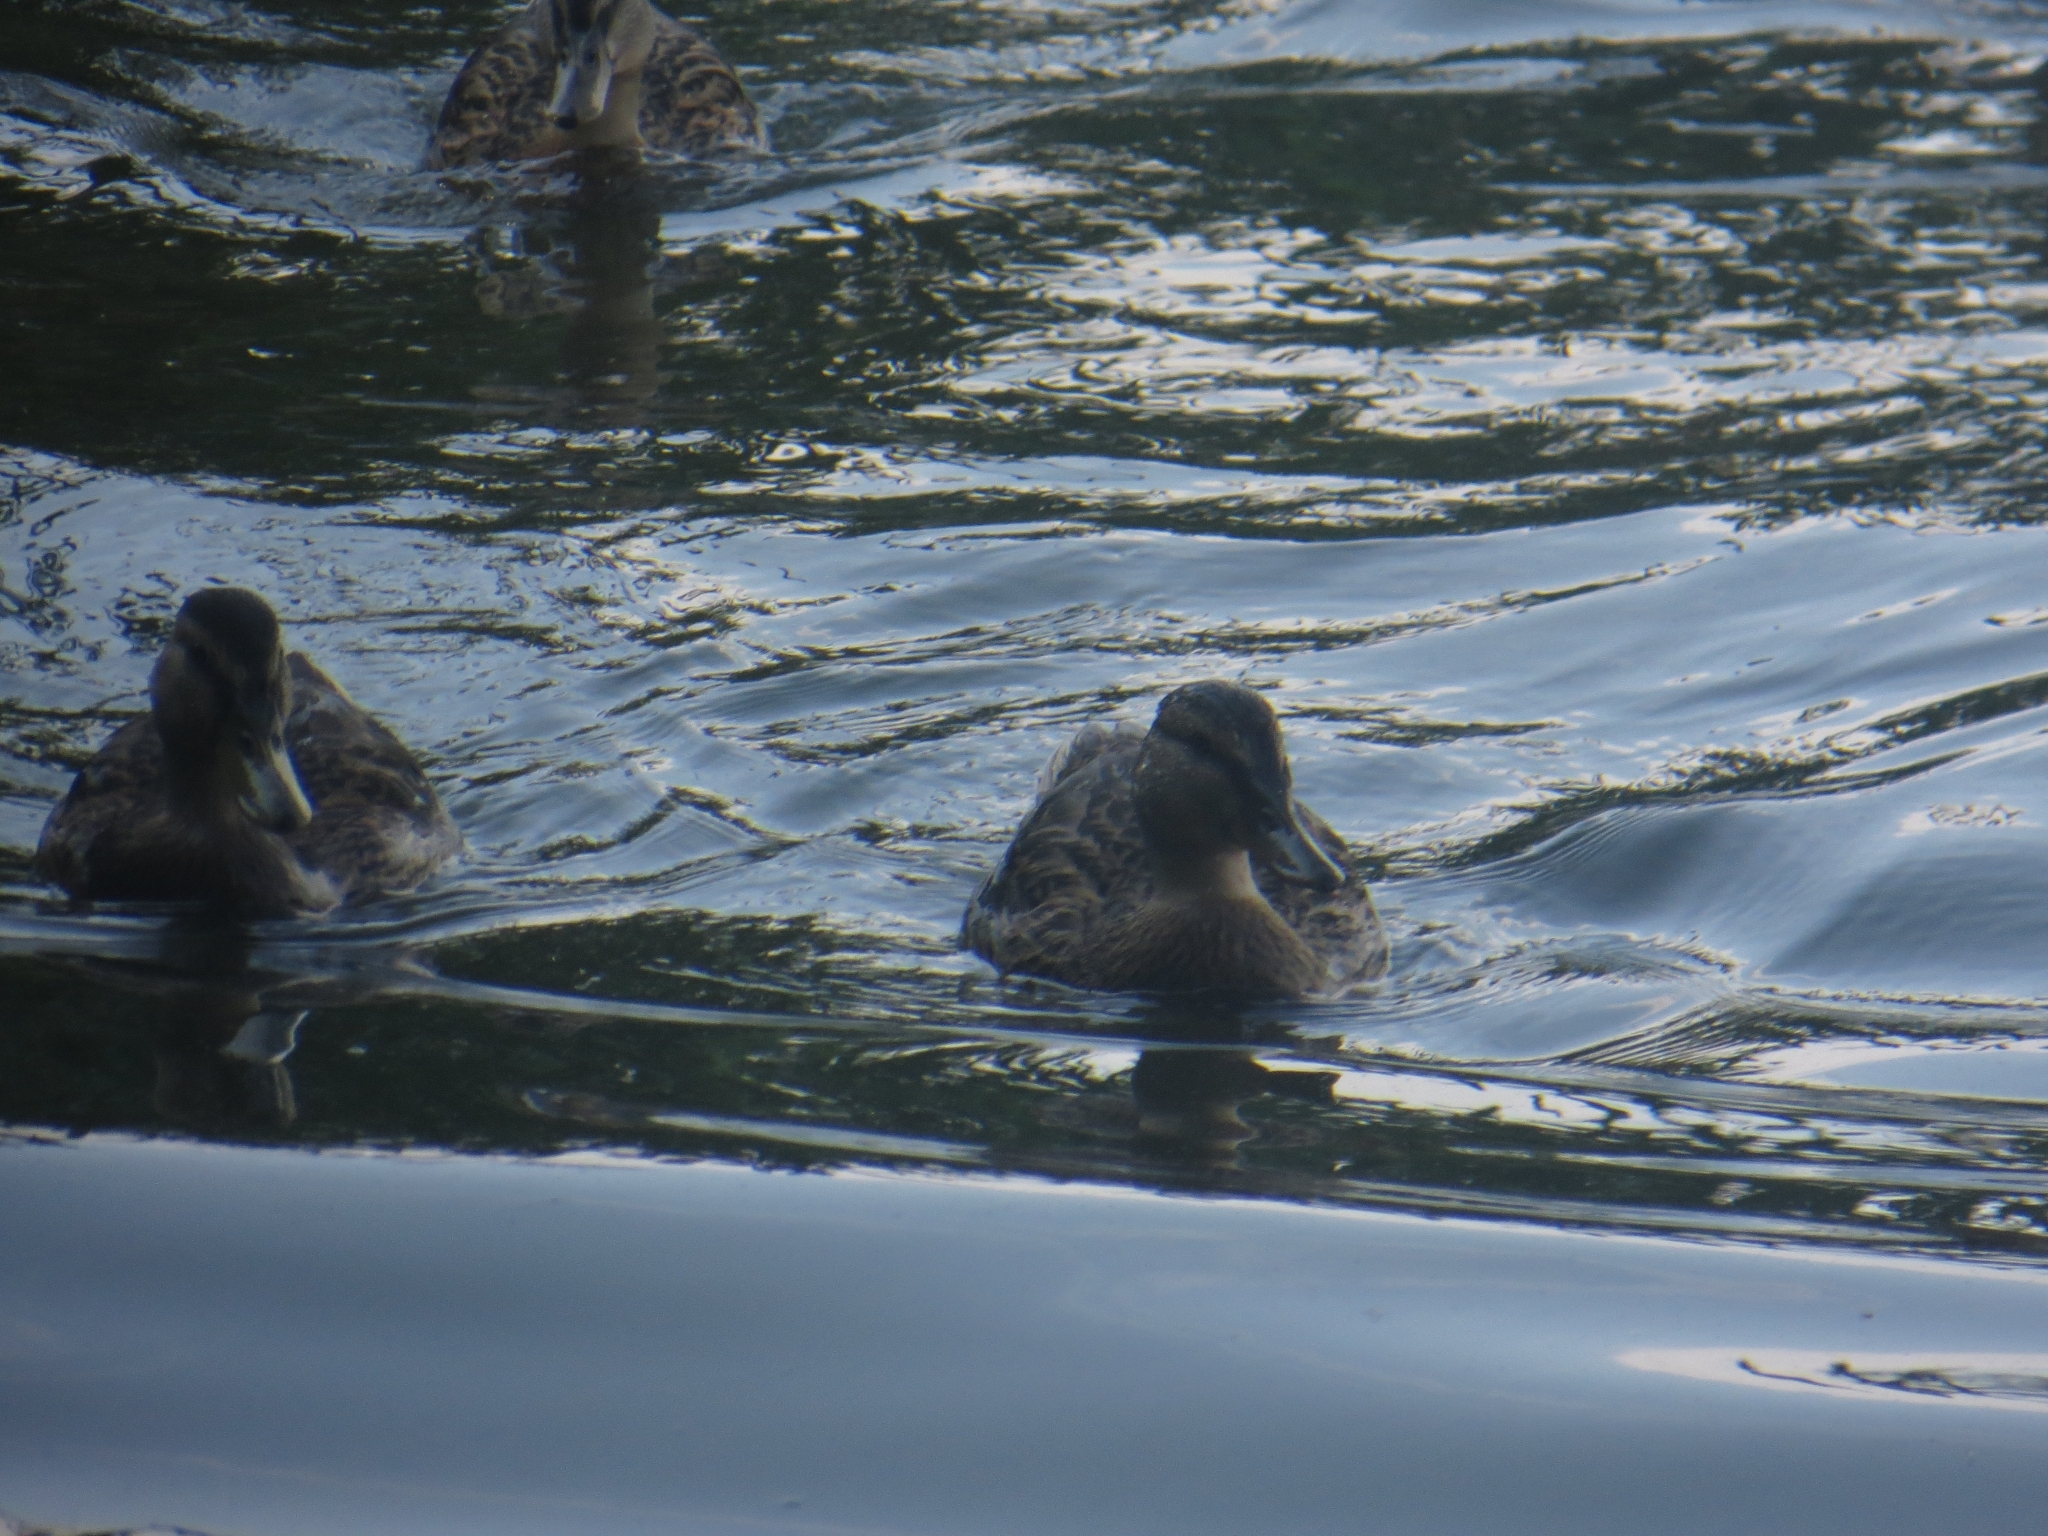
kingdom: Animalia
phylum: Chordata
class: Aves
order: Anseriformes
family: Anatidae
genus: Anas
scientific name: Anas platyrhynchos
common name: Mallard
